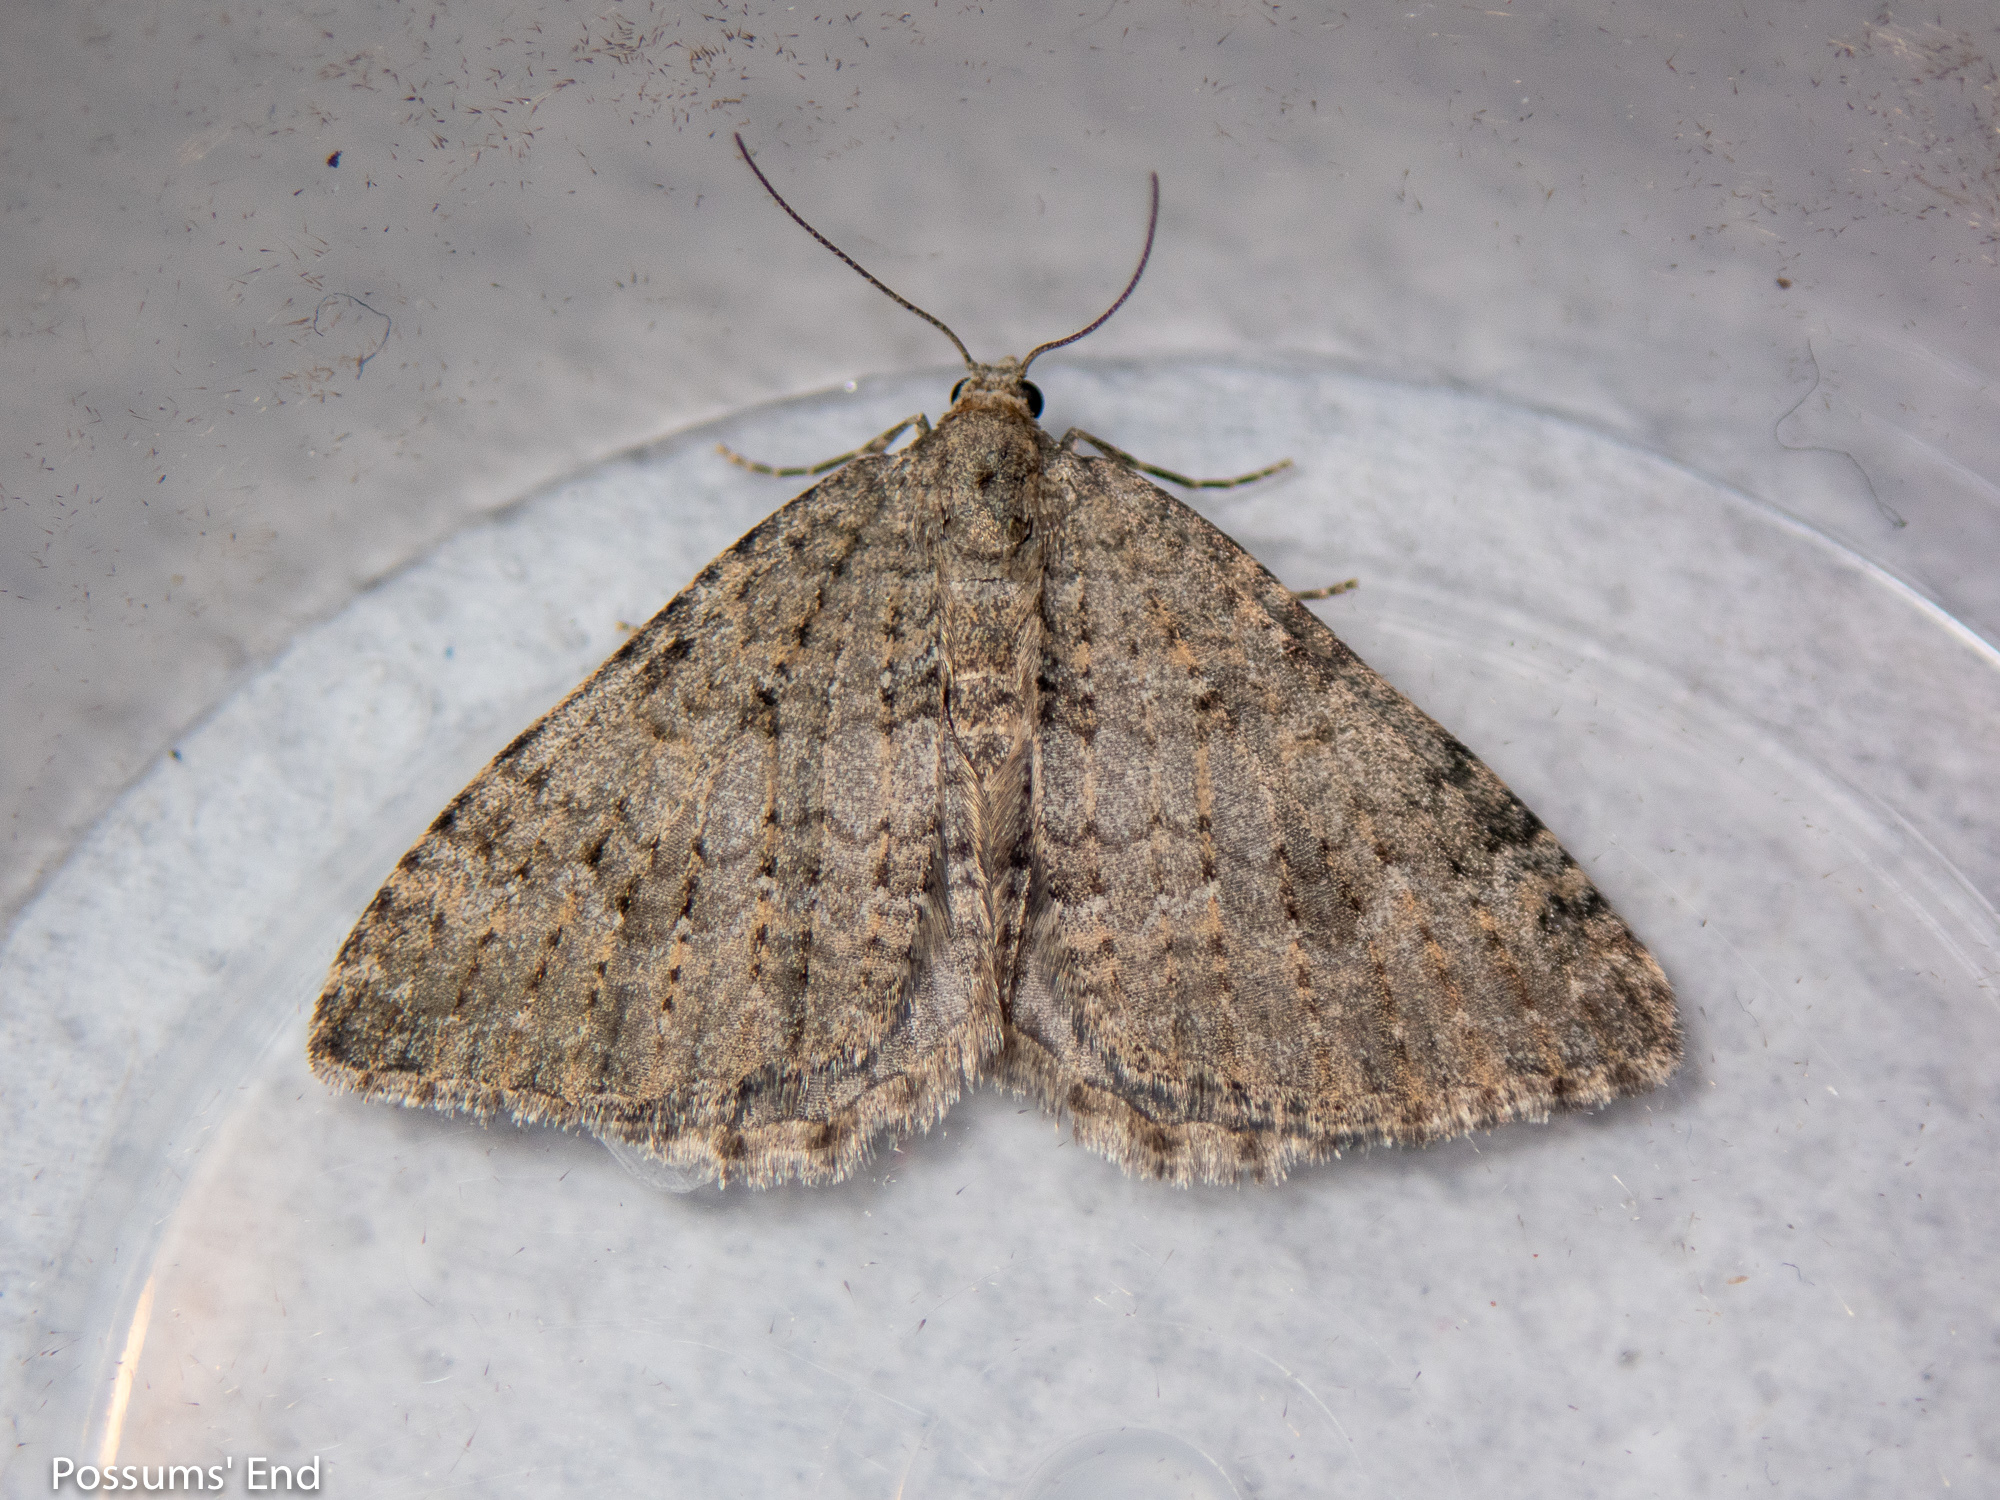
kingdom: Animalia
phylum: Arthropoda
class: Insecta
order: Lepidoptera
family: Geometridae
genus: Helastia
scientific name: Helastia corcularia
